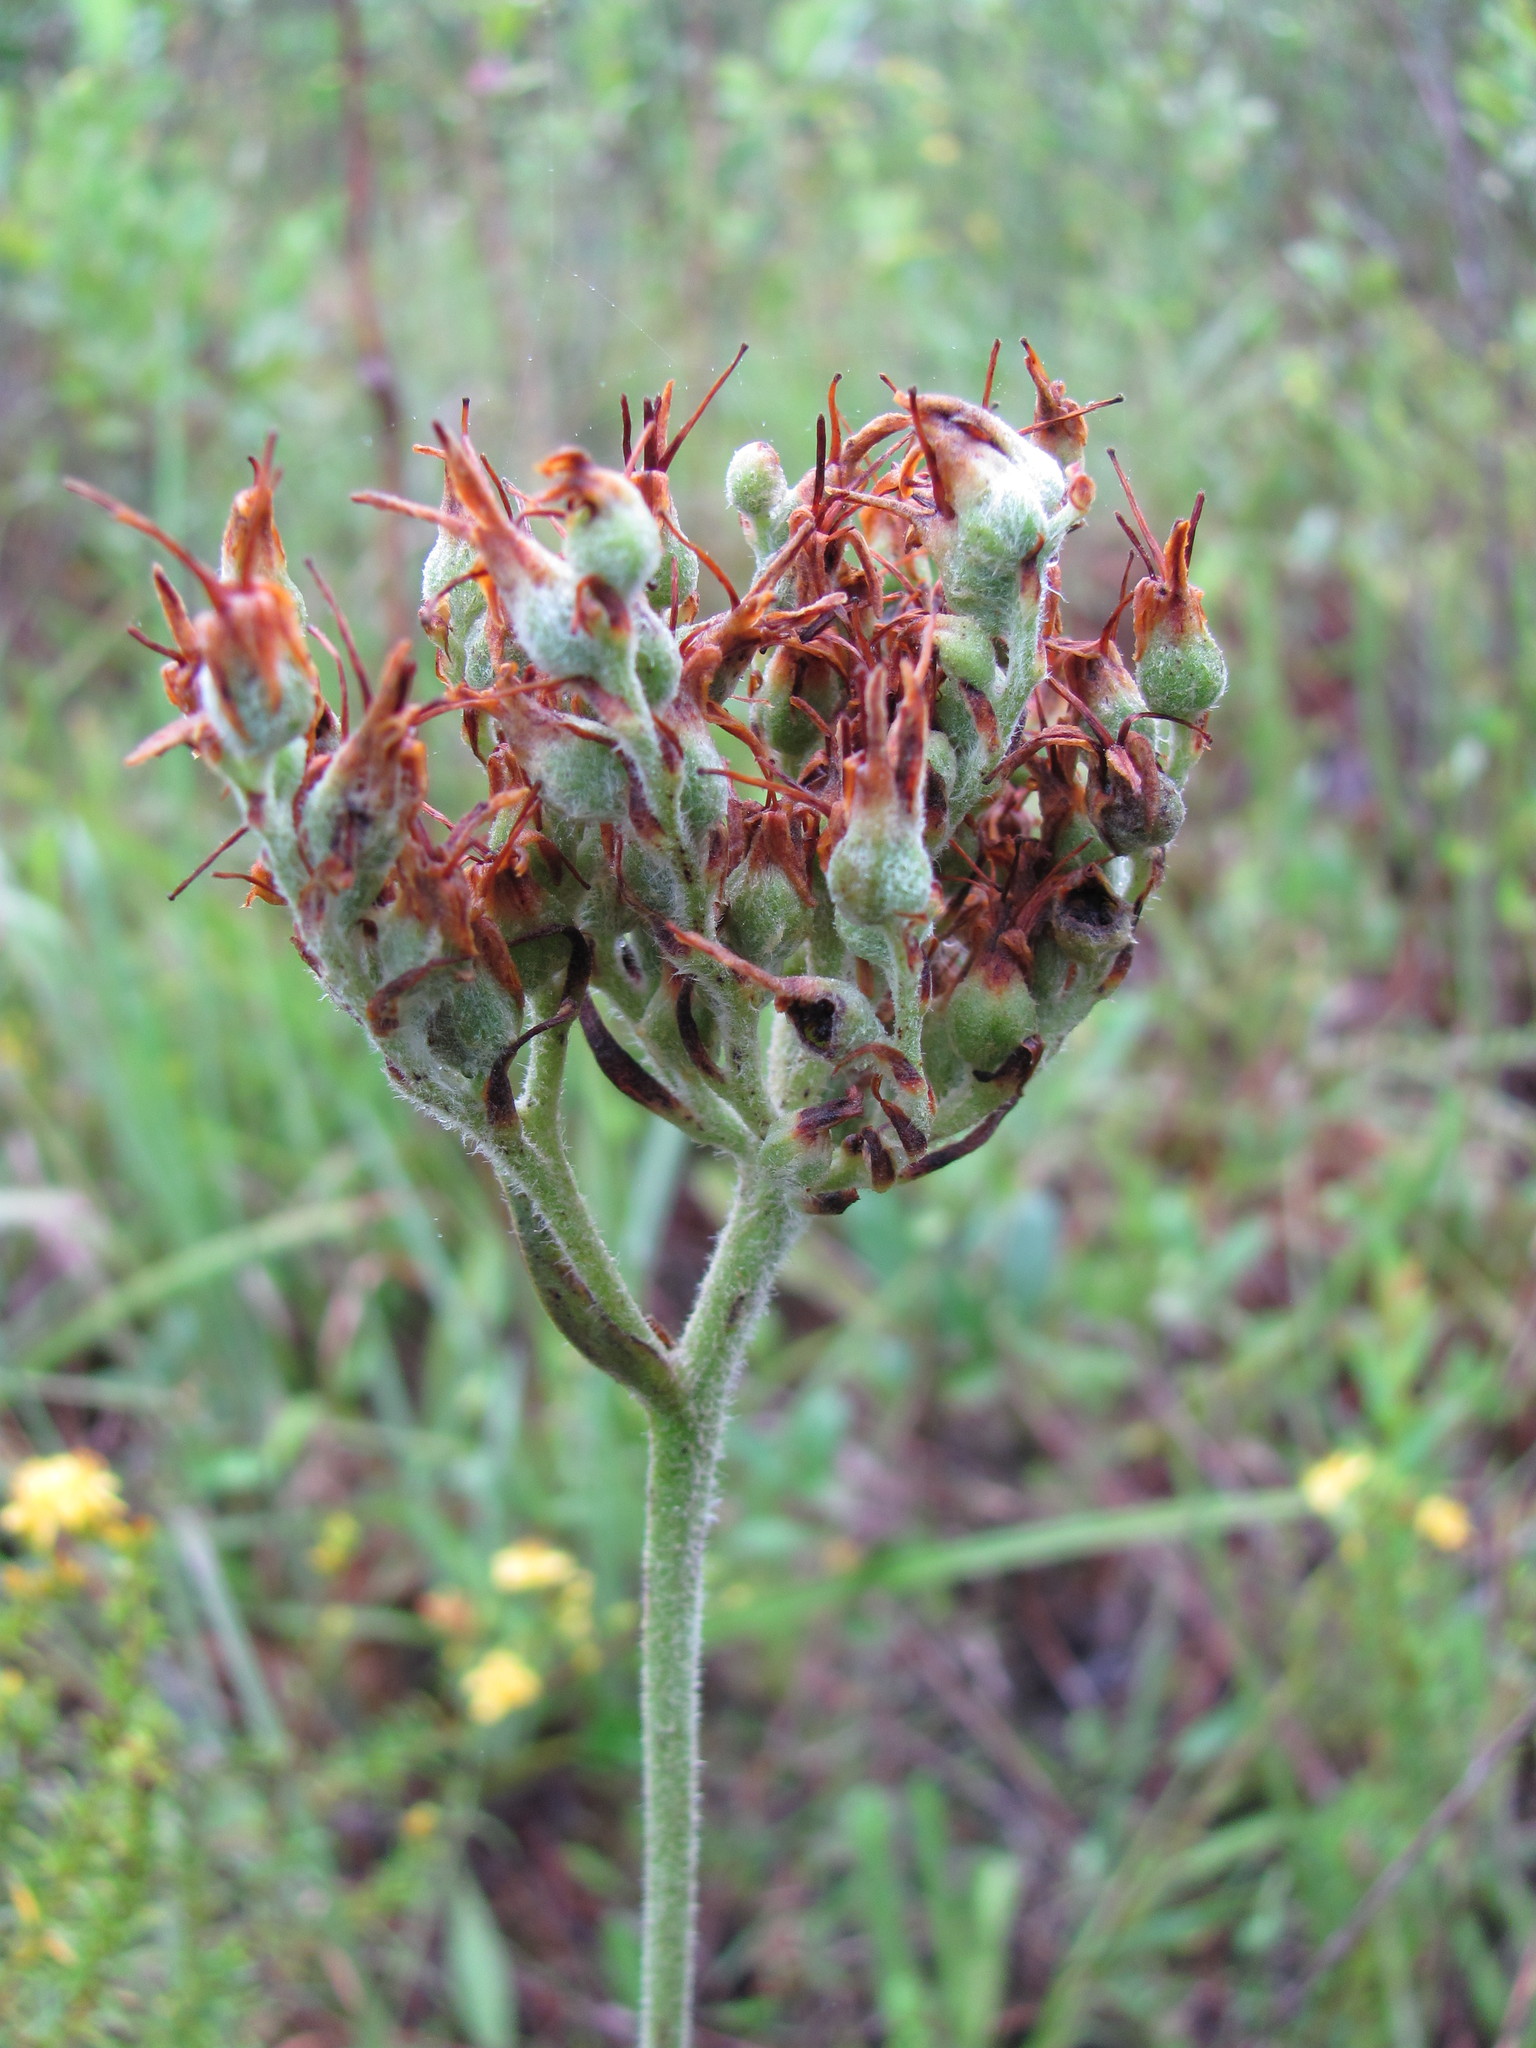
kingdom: Plantae
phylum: Tracheophyta
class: Liliopsida
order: Commelinales
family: Haemodoraceae
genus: Lachnanthes
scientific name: Lachnanthes caroliana
